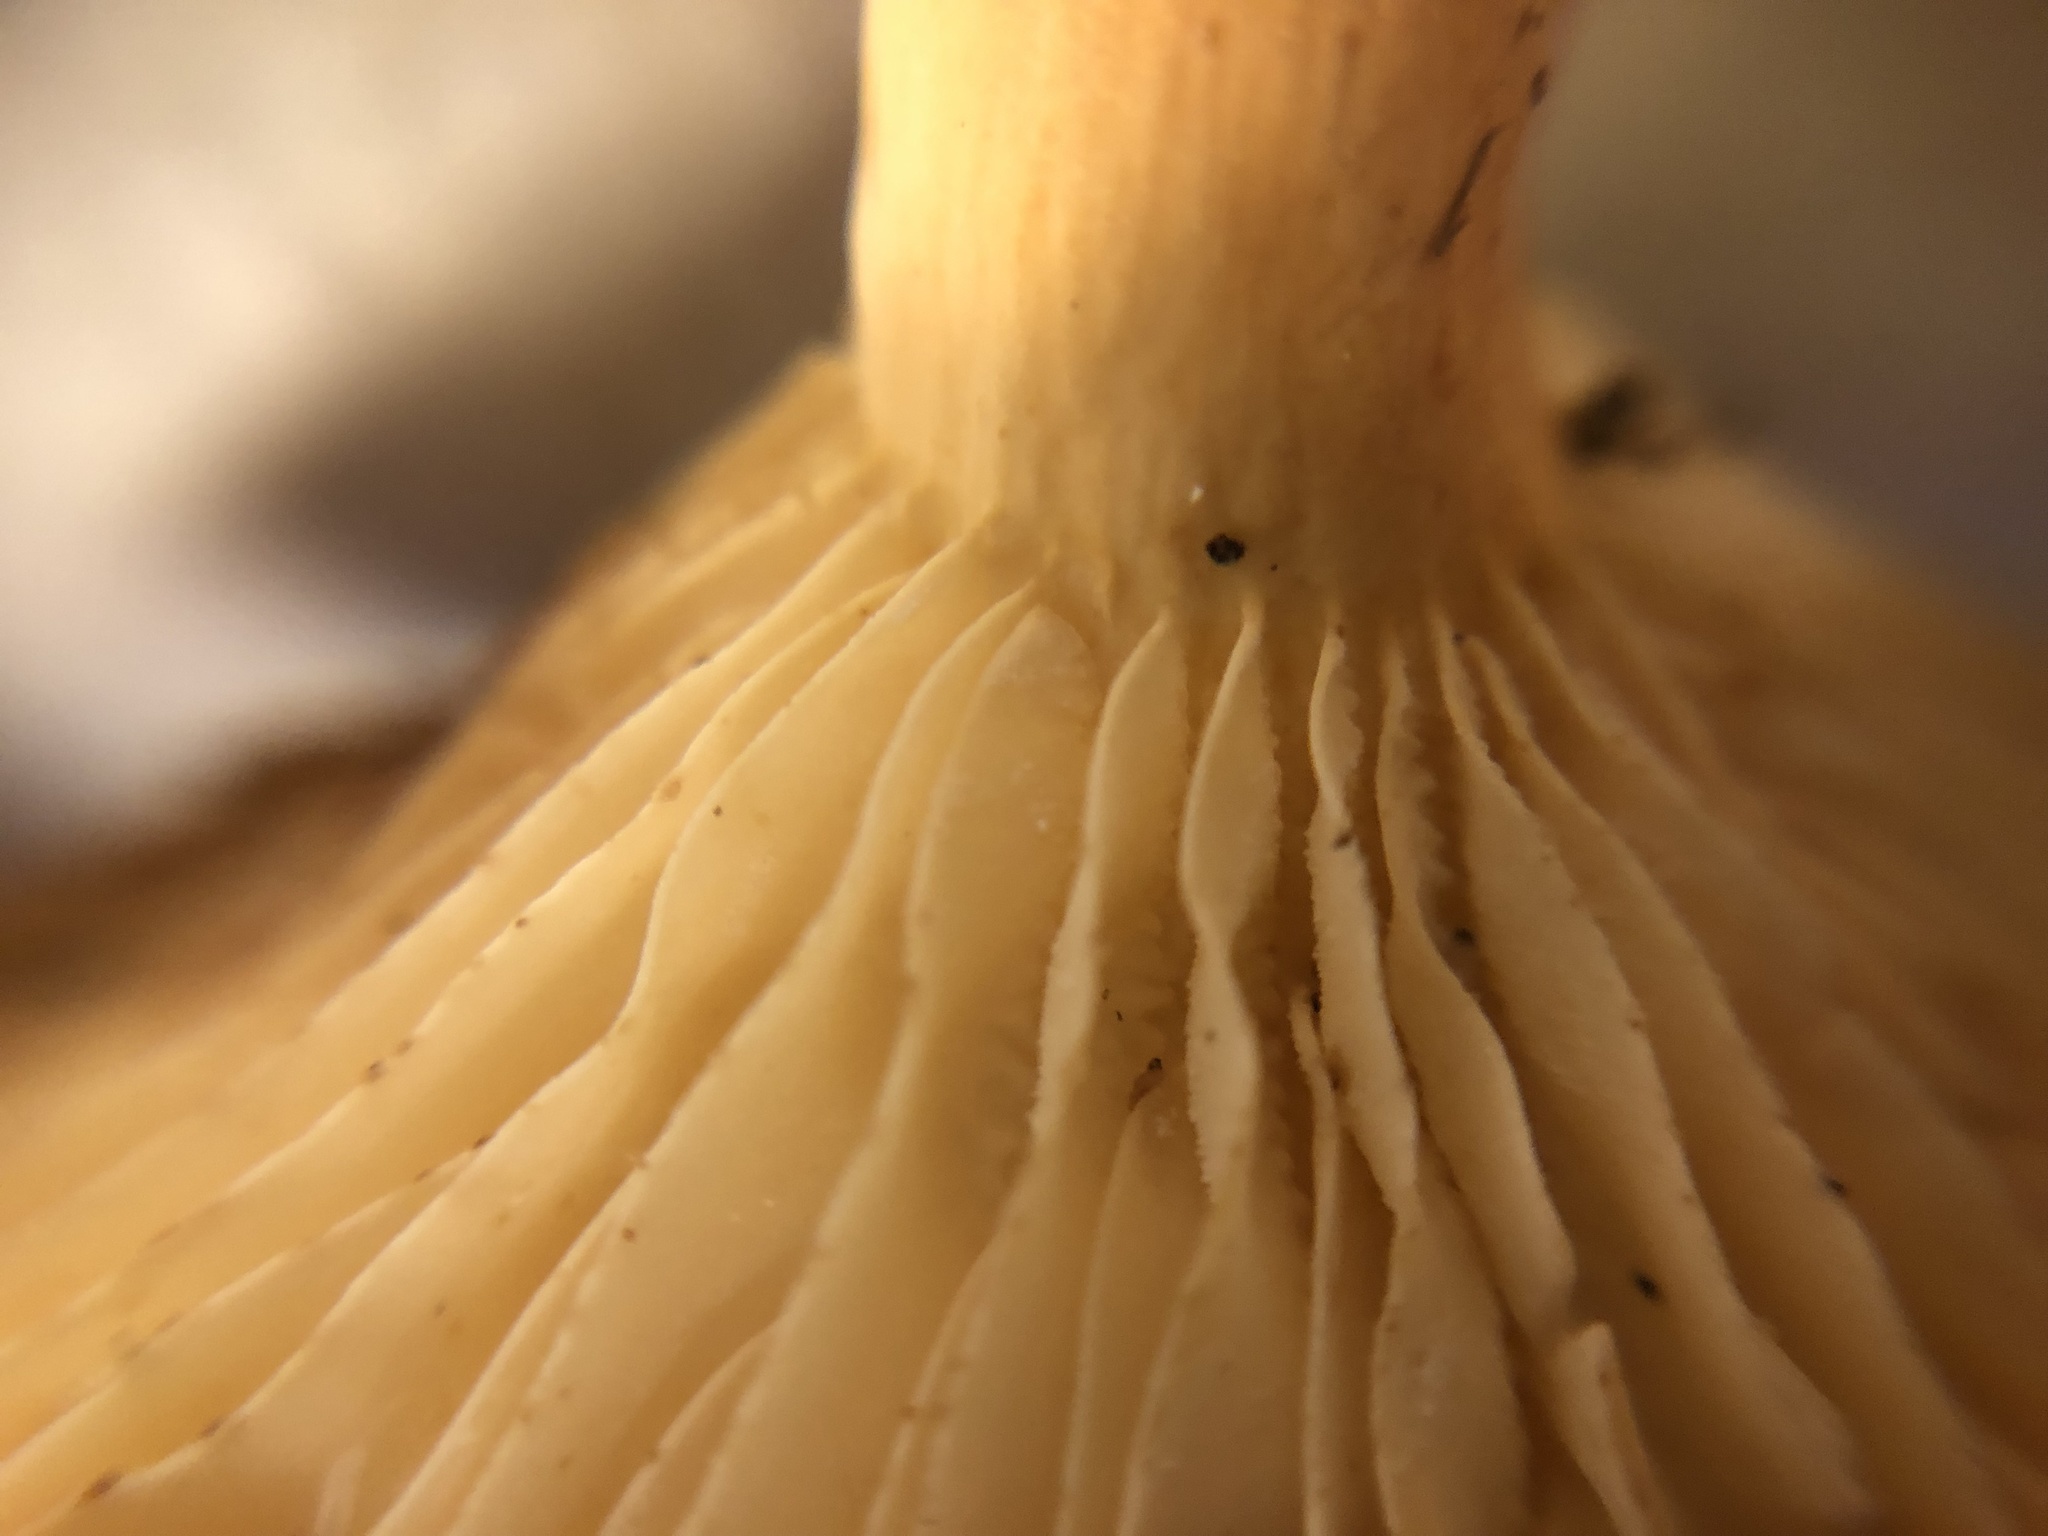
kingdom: Fungi
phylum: Basidiomycota
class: Agaricomycetes
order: Russulales
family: Russulaceae
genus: Lactarius
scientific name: Lactarius hygrophoroides
